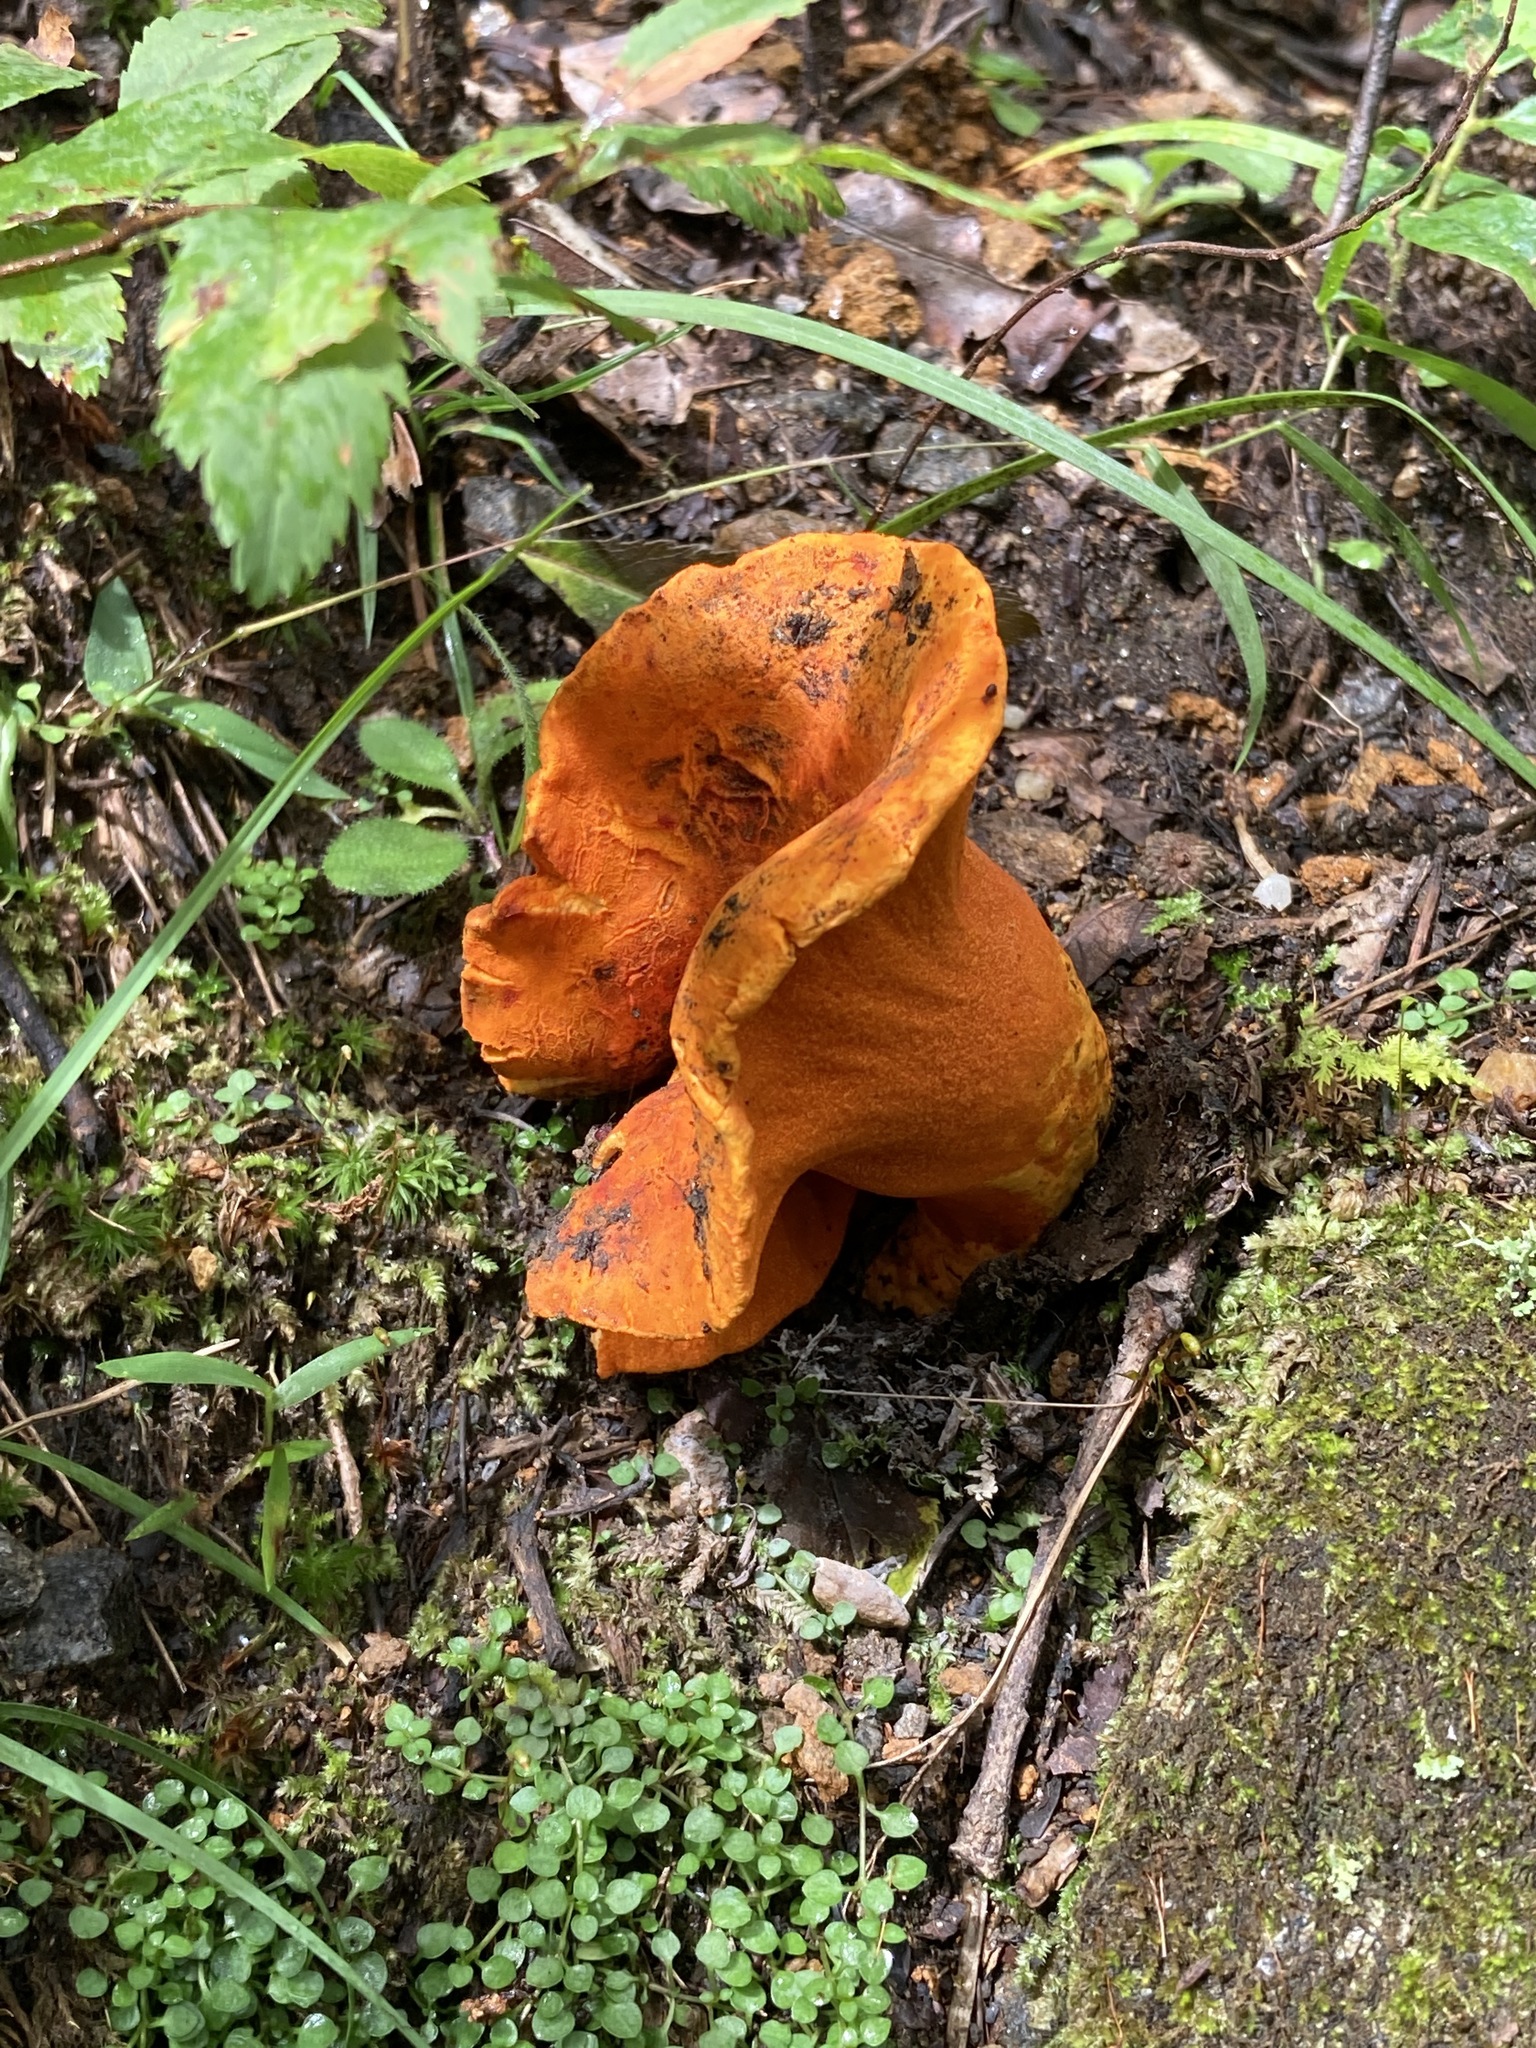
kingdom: Fungi
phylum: Ascomycota
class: Sordariomycetes
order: Hypocreales
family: Hypocreaceae
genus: Hypomyces
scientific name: Hypomyces lactifluorum
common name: Lobster mushroom
